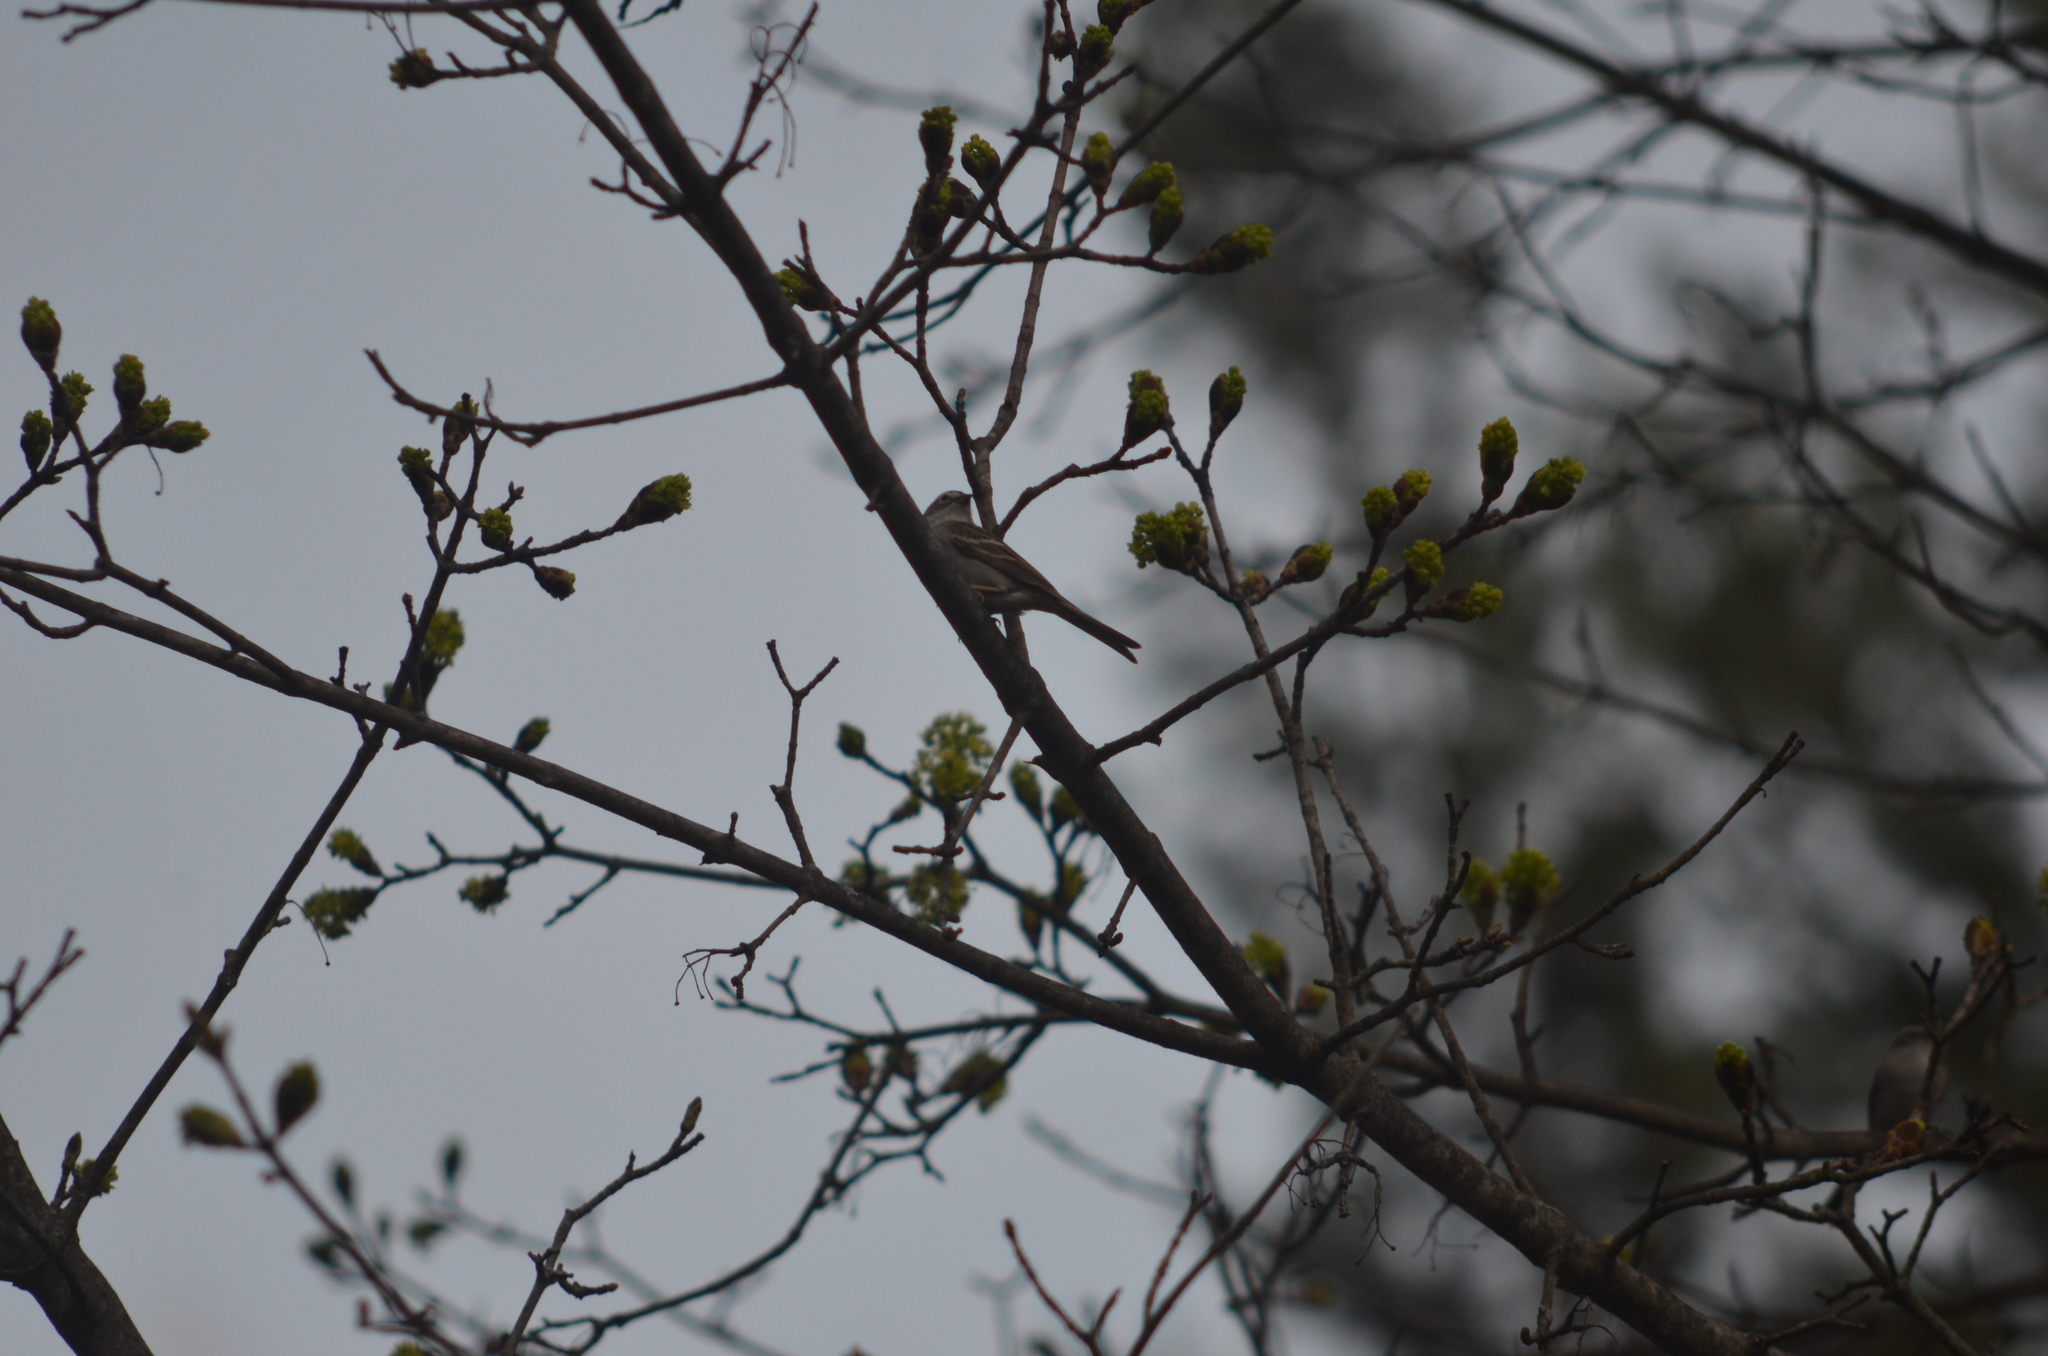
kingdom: Animalia
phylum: Chordata
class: Aves
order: Passeriformes
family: Passerellidae
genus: Spizella
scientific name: Spizella passerina
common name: Chipping sparrow
